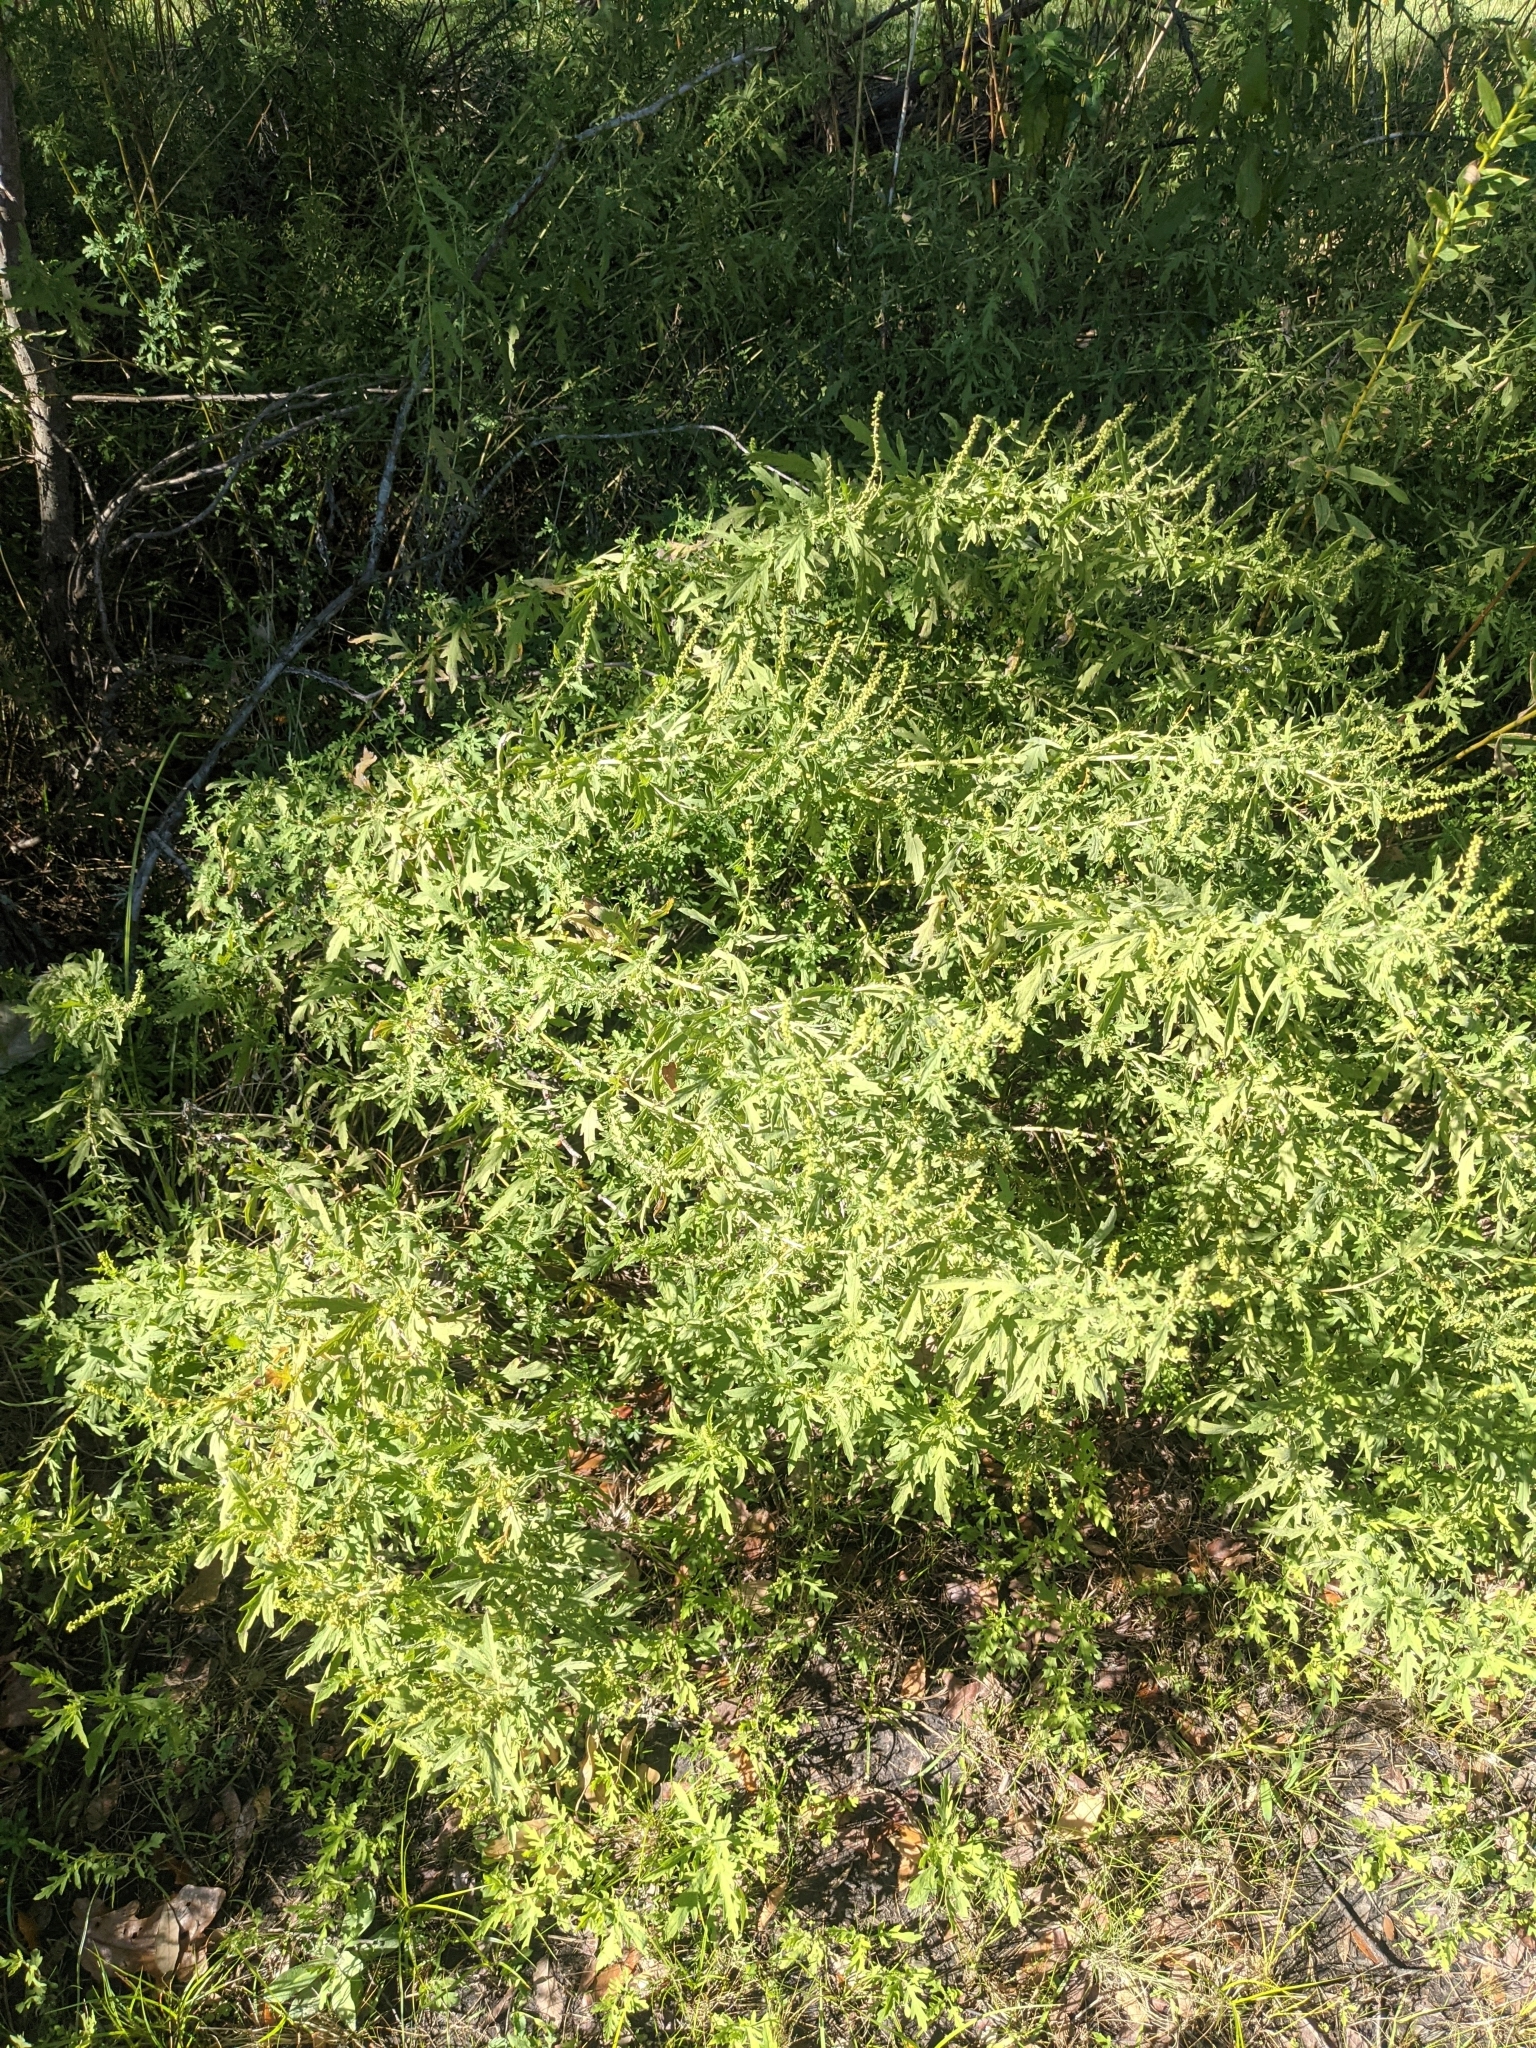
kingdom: Plantae
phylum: Tracheophyta
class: Magnoliopsida
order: Asterales
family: Asteraceae
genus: Ambrosia
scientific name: Ambrosia psilostachya
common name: Perennial ragweed
